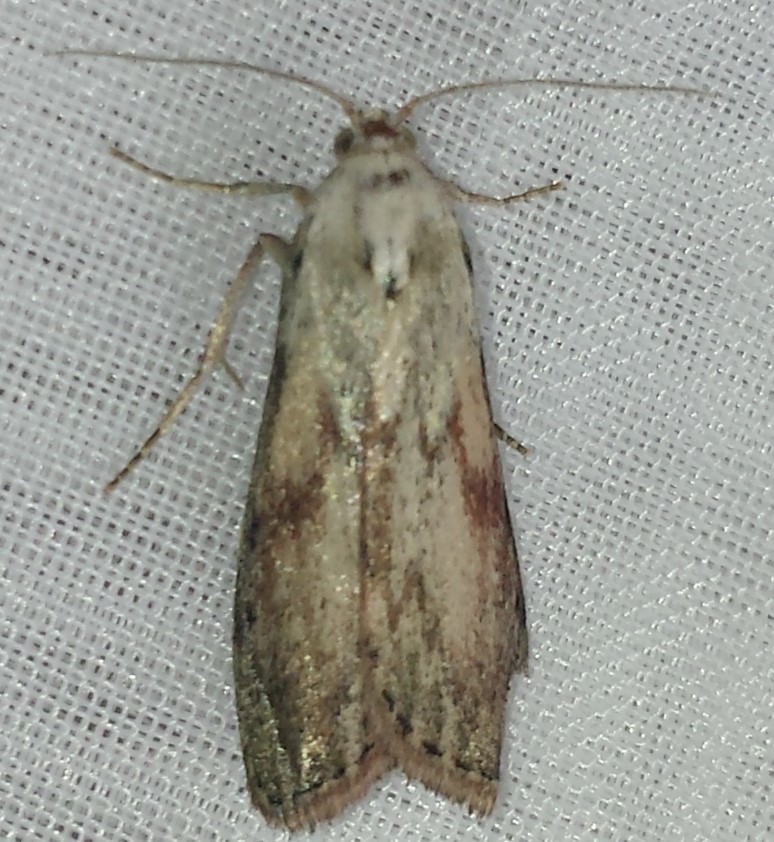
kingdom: Animalia
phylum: Arthropoda
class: Insecta
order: Lepidoptera
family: Pyralidae
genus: Aphomia
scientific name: Aphomia sociella
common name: Bee moth
